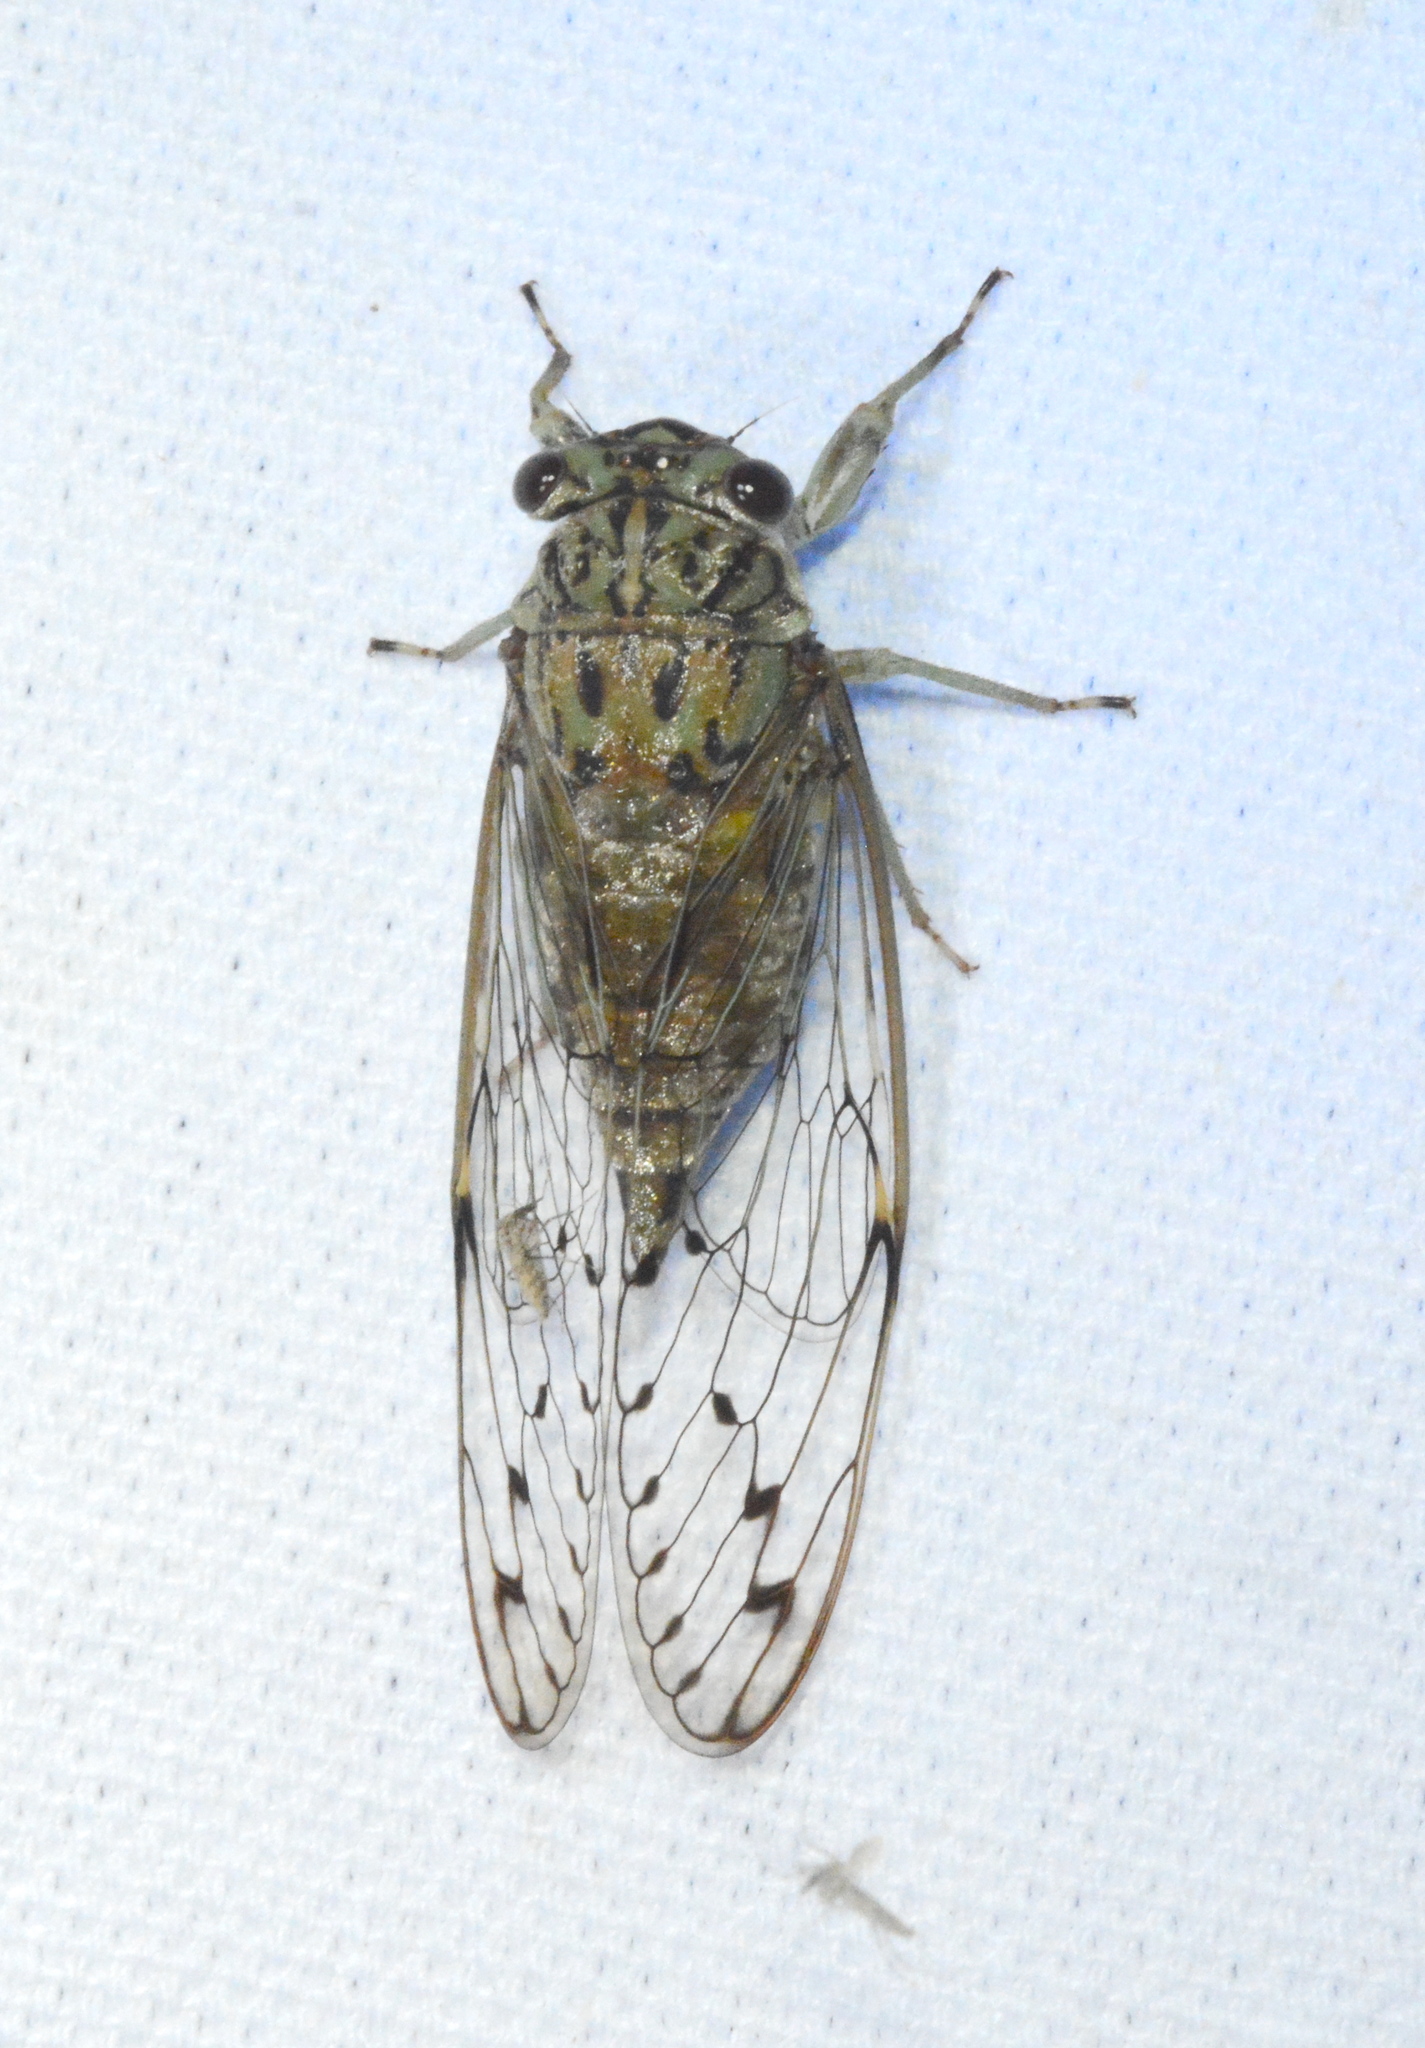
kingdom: Animalia
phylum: Arthropoda
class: Insecta
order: Hemiptera
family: Cicadidae
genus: Neocicada
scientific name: Neocicada hieroglyphica
